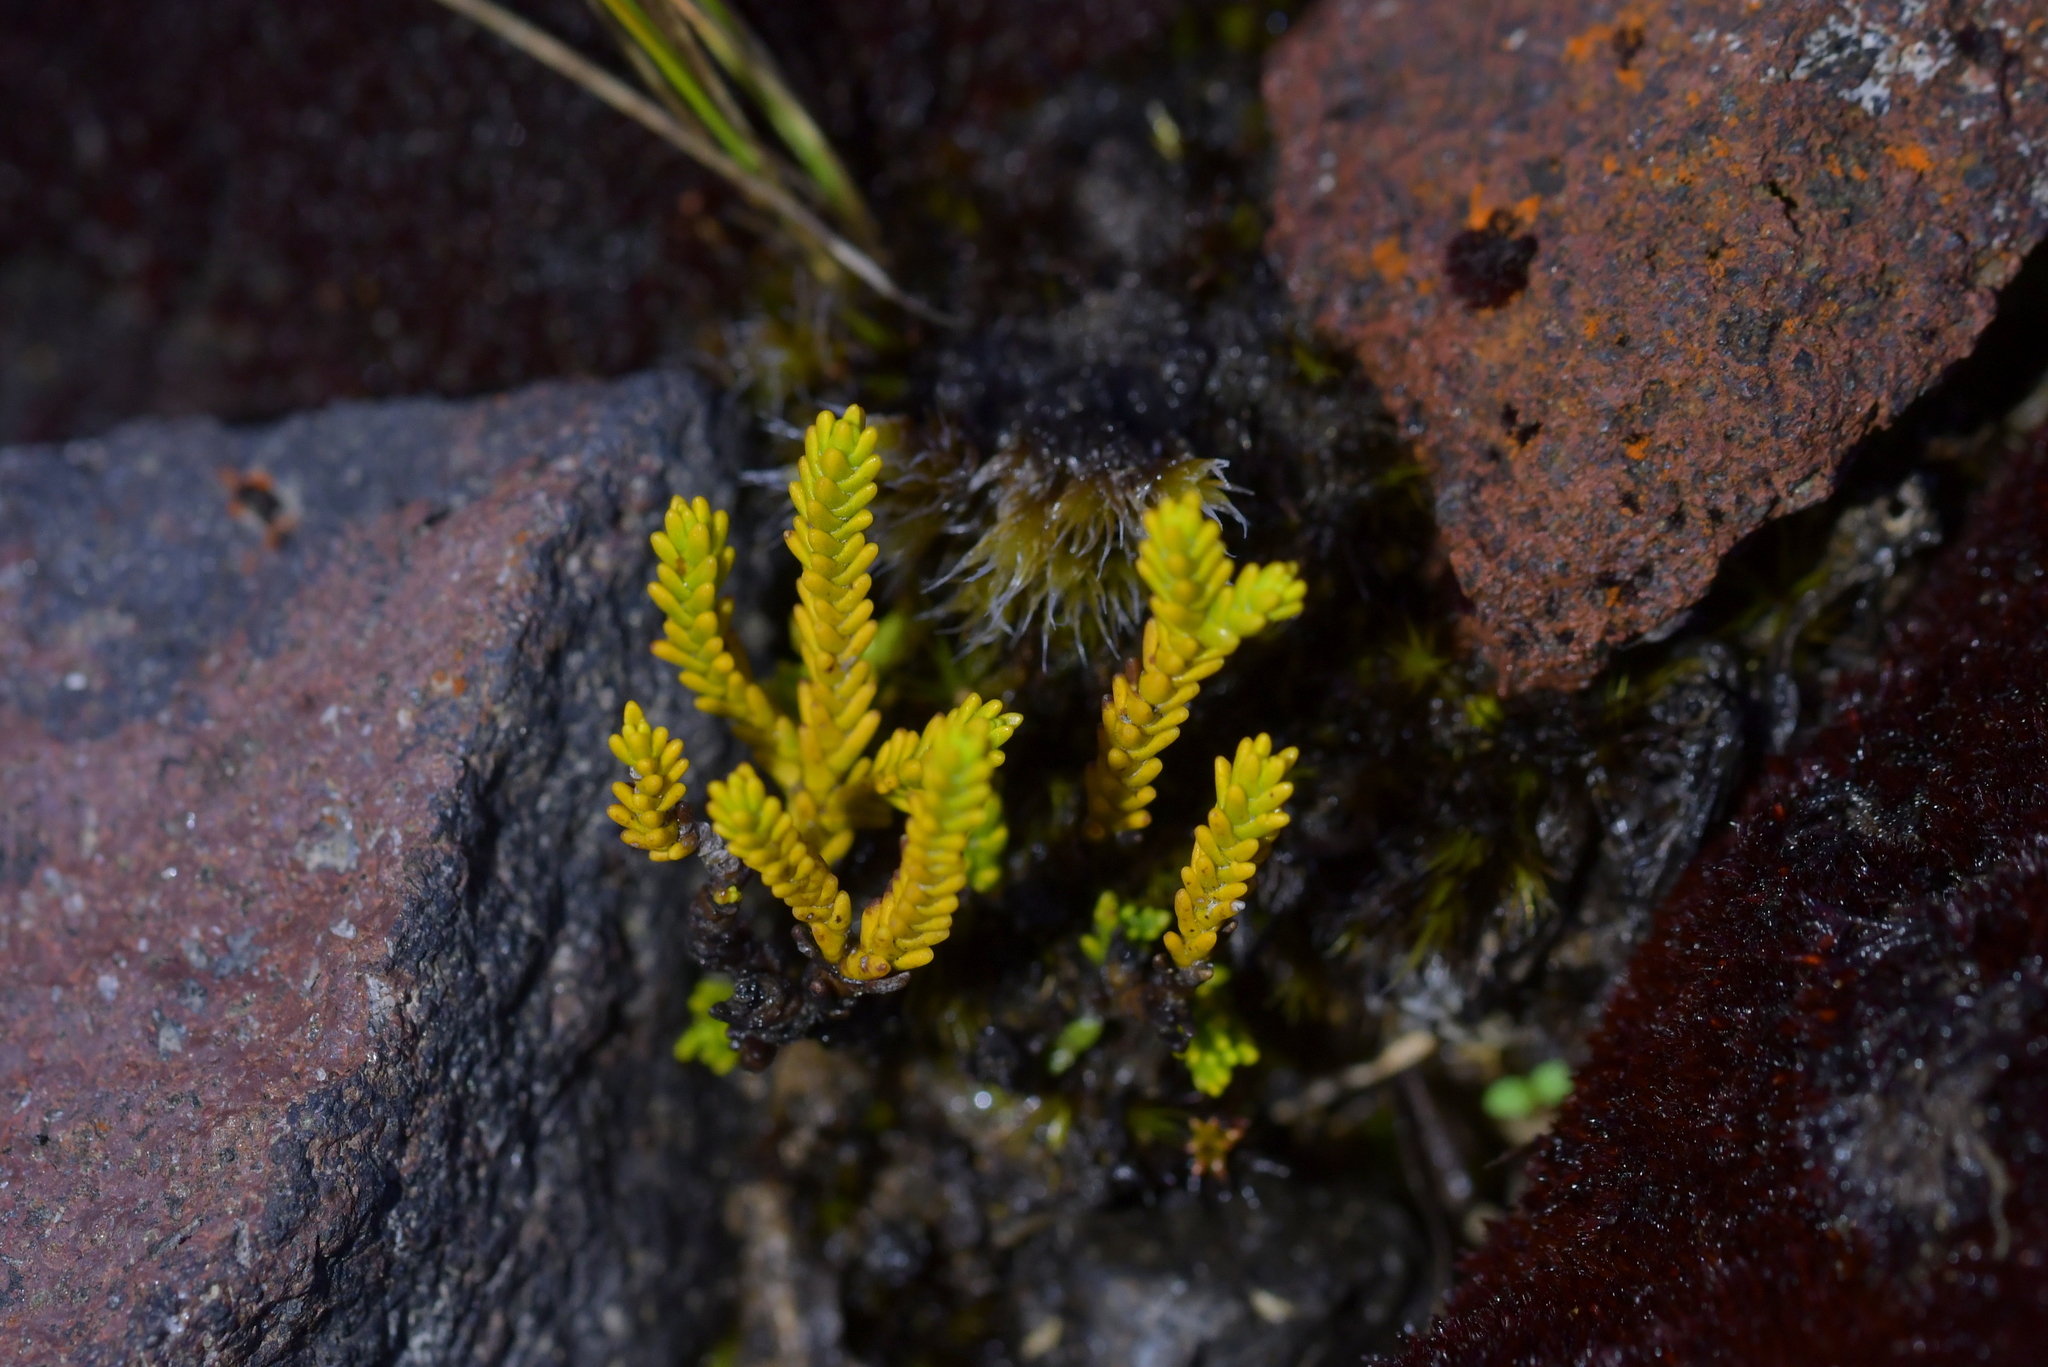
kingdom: Plantae
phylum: Tracheophyta
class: Magnoliopsida
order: Lamiales
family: Plantaginaceae
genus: Veronica
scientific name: Veronica tetragona
